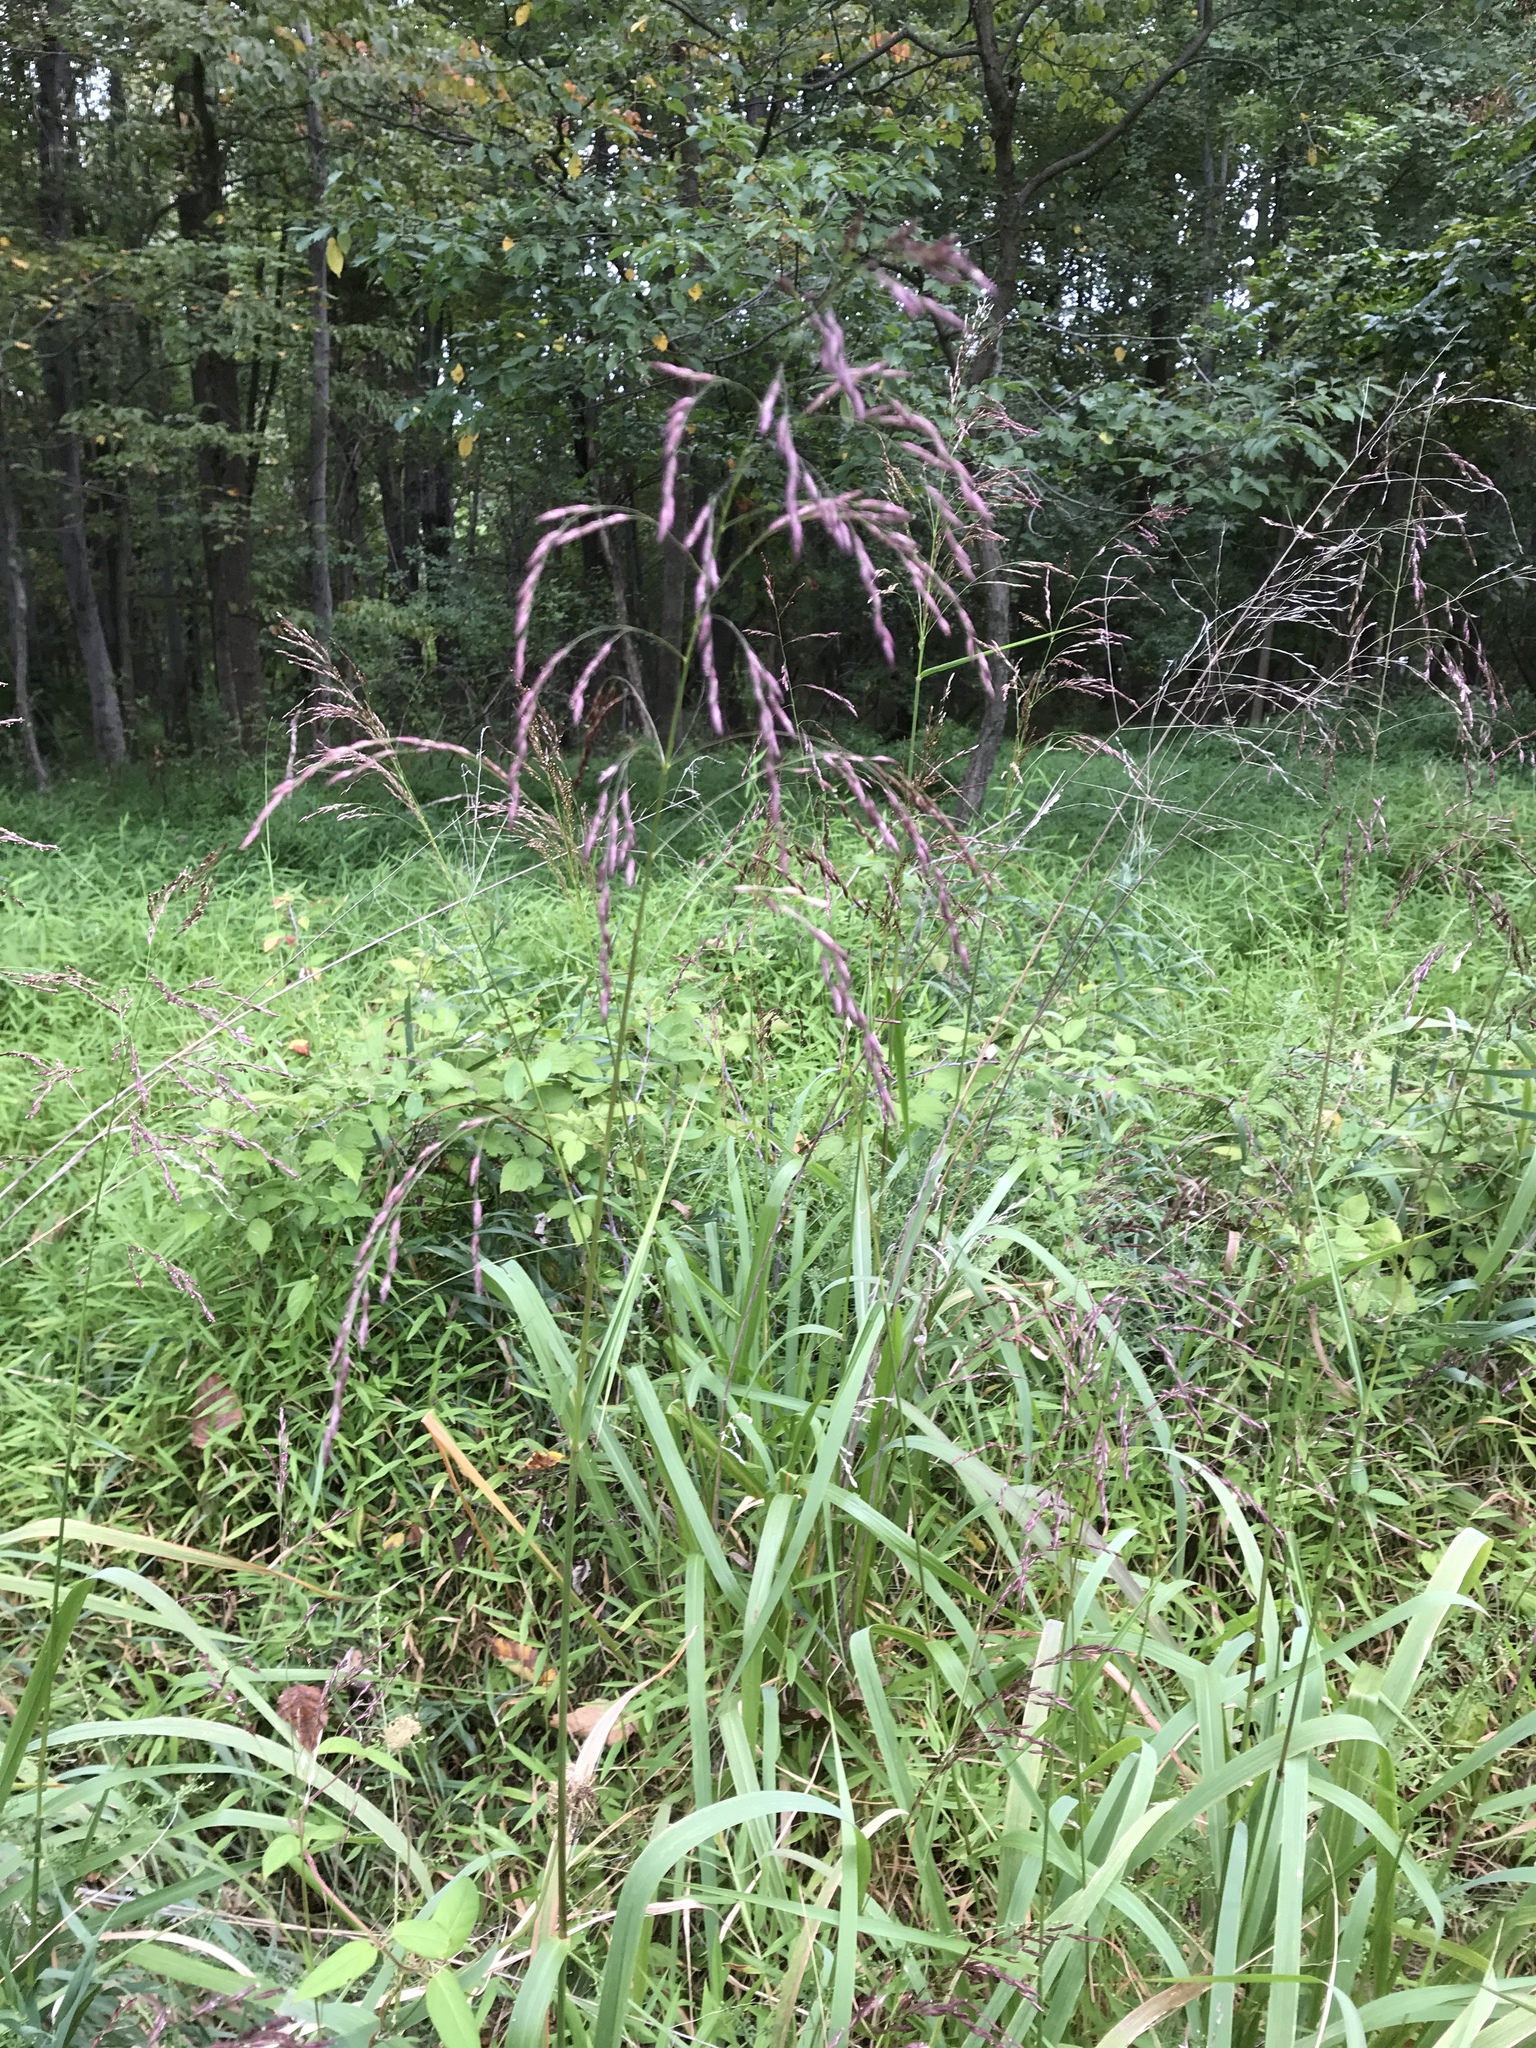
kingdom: Plantae
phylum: Tracheophyta
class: Liliopsida
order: Poales
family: Poaceae
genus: Tridens
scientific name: Tridens flavus
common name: Purpletop
